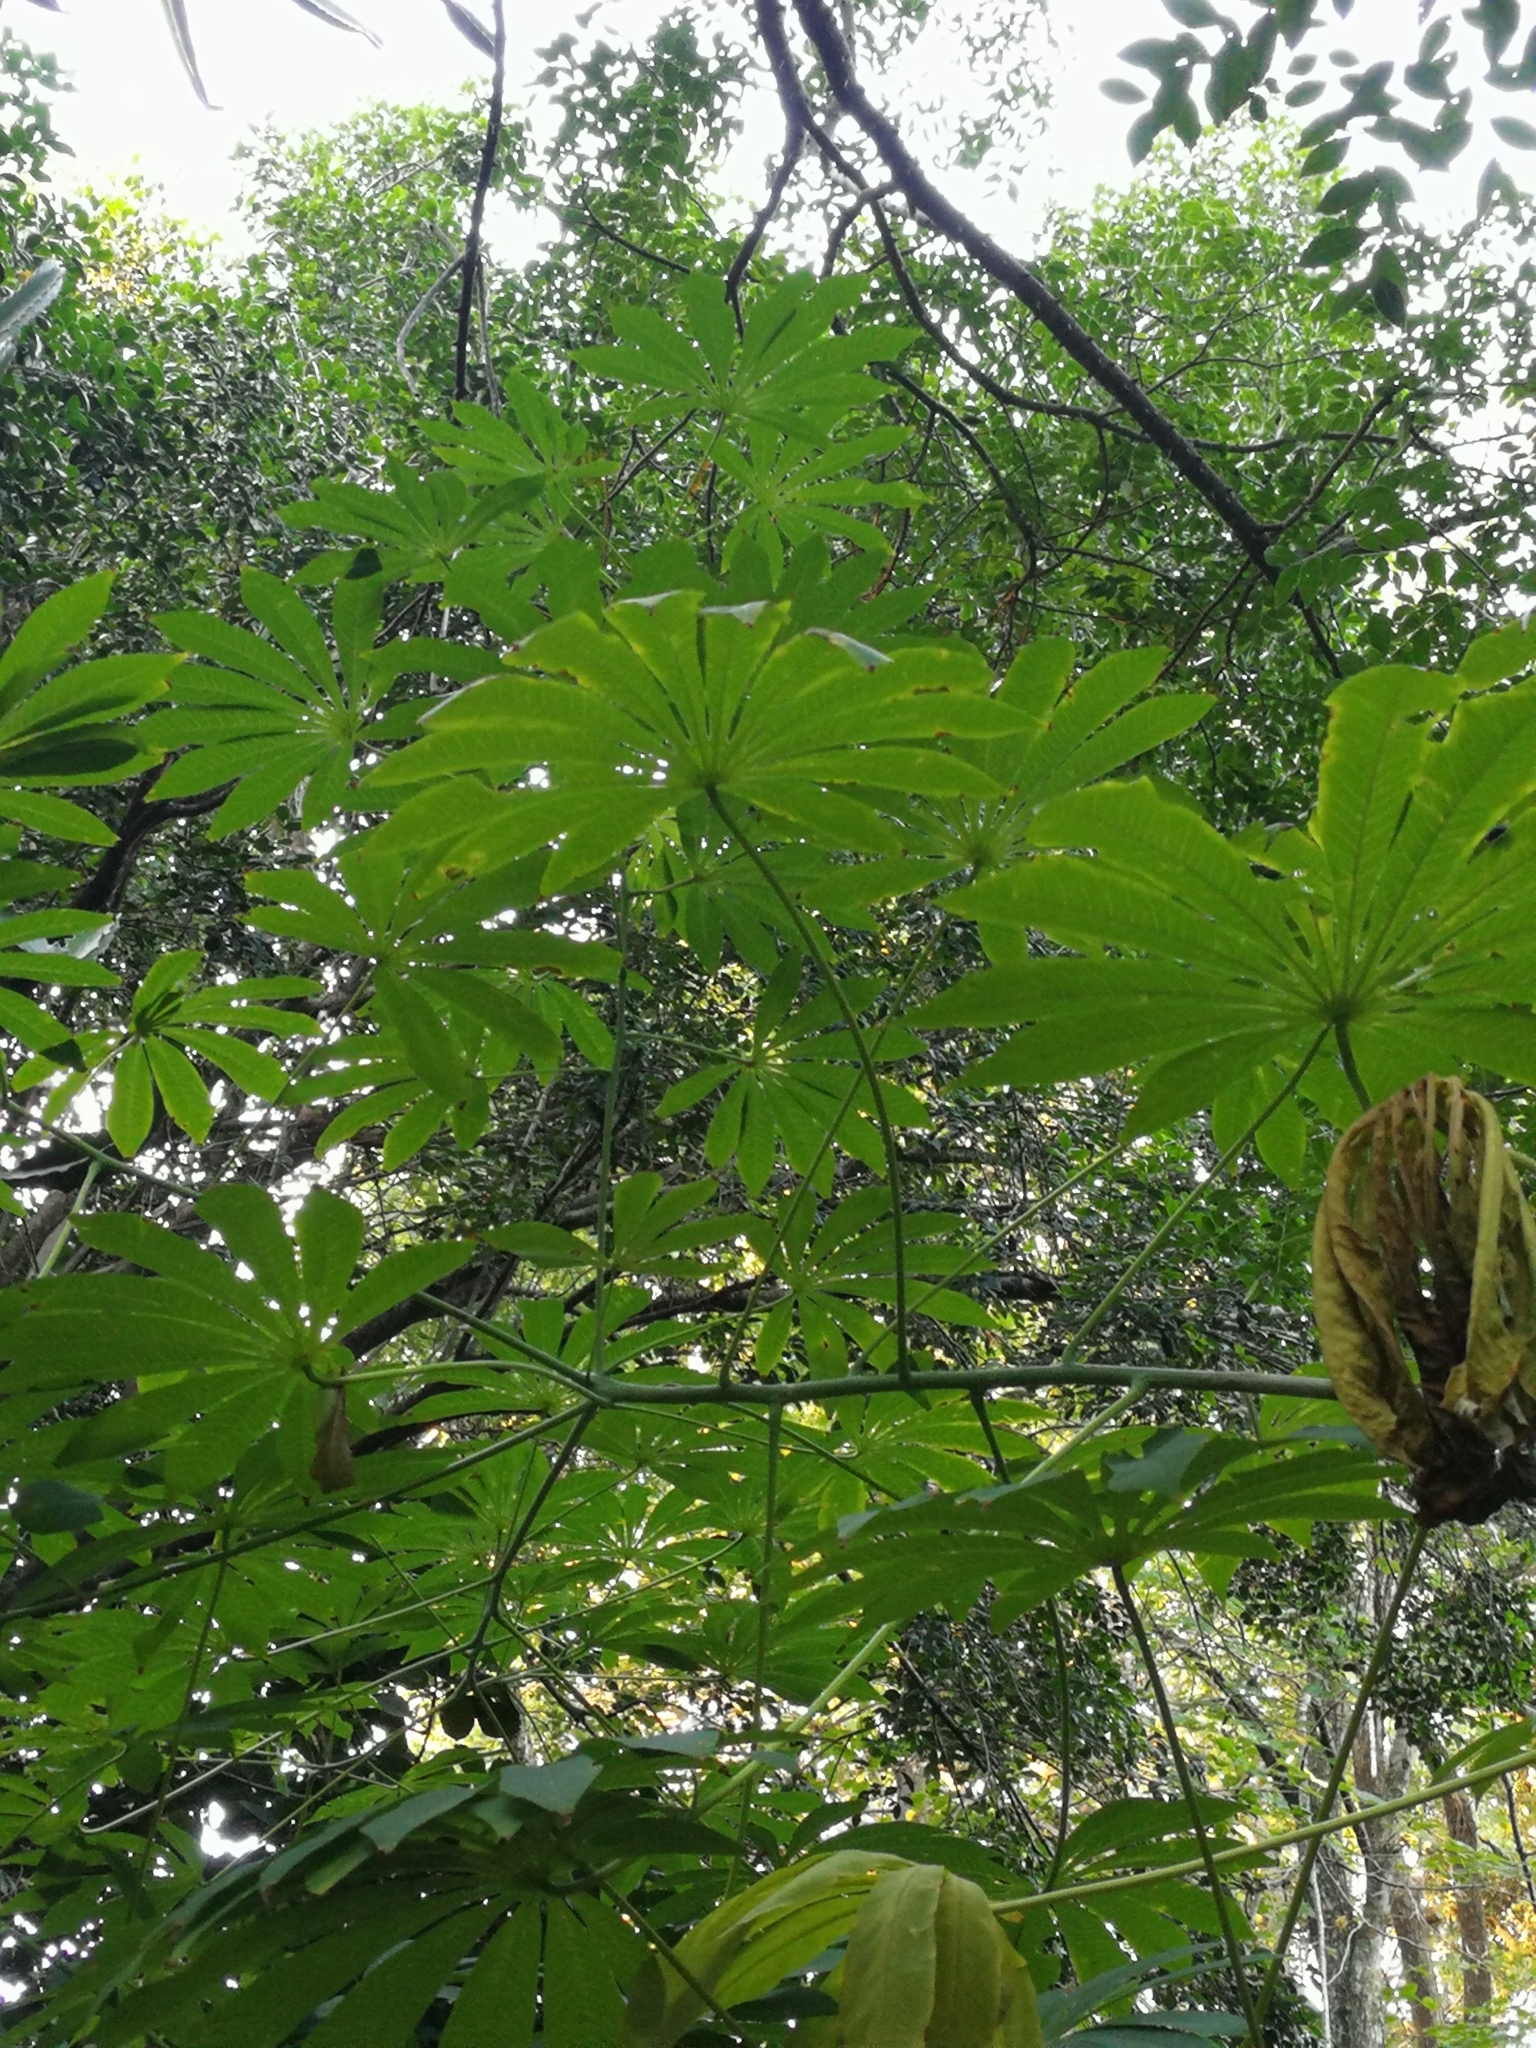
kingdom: Plantae
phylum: Tracheophyta
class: Magnoliopsida
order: Malpighiales
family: Euphorbiaceae
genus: Manihot
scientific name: Manihot grahamii
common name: Graham's manihot
